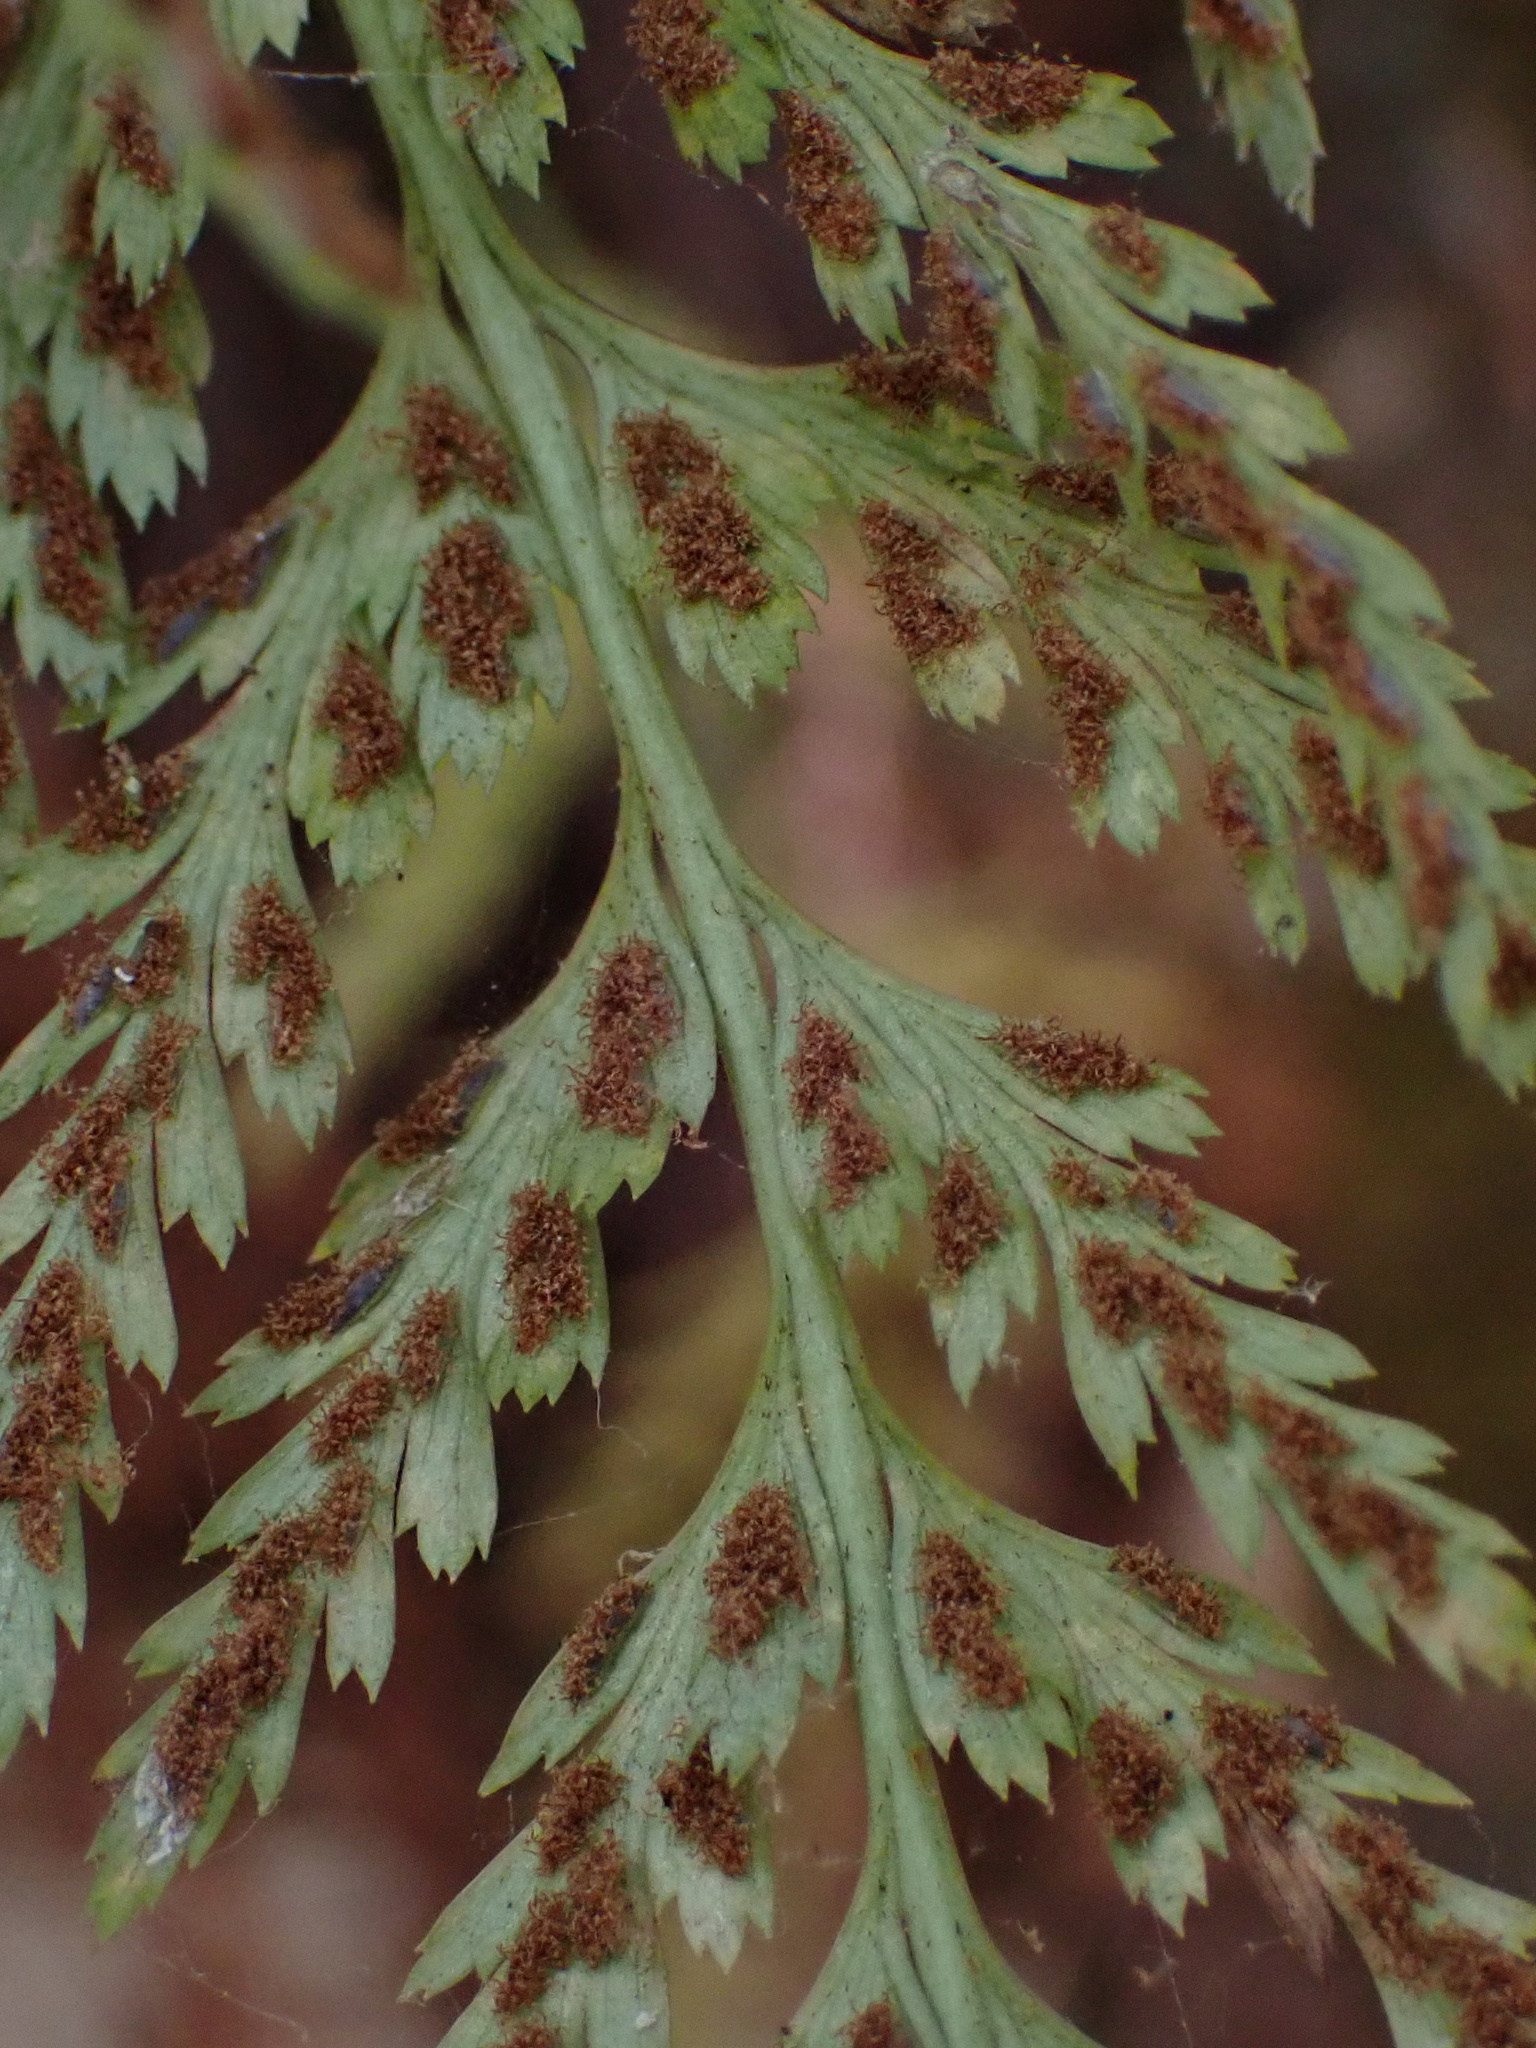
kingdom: Plantae
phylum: Tracheophyta
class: Polypodiopsida
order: Polypodiales
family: Aspleniaceae
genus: Asplenium
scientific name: Asplenium onopteris
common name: Irish spleenwort
